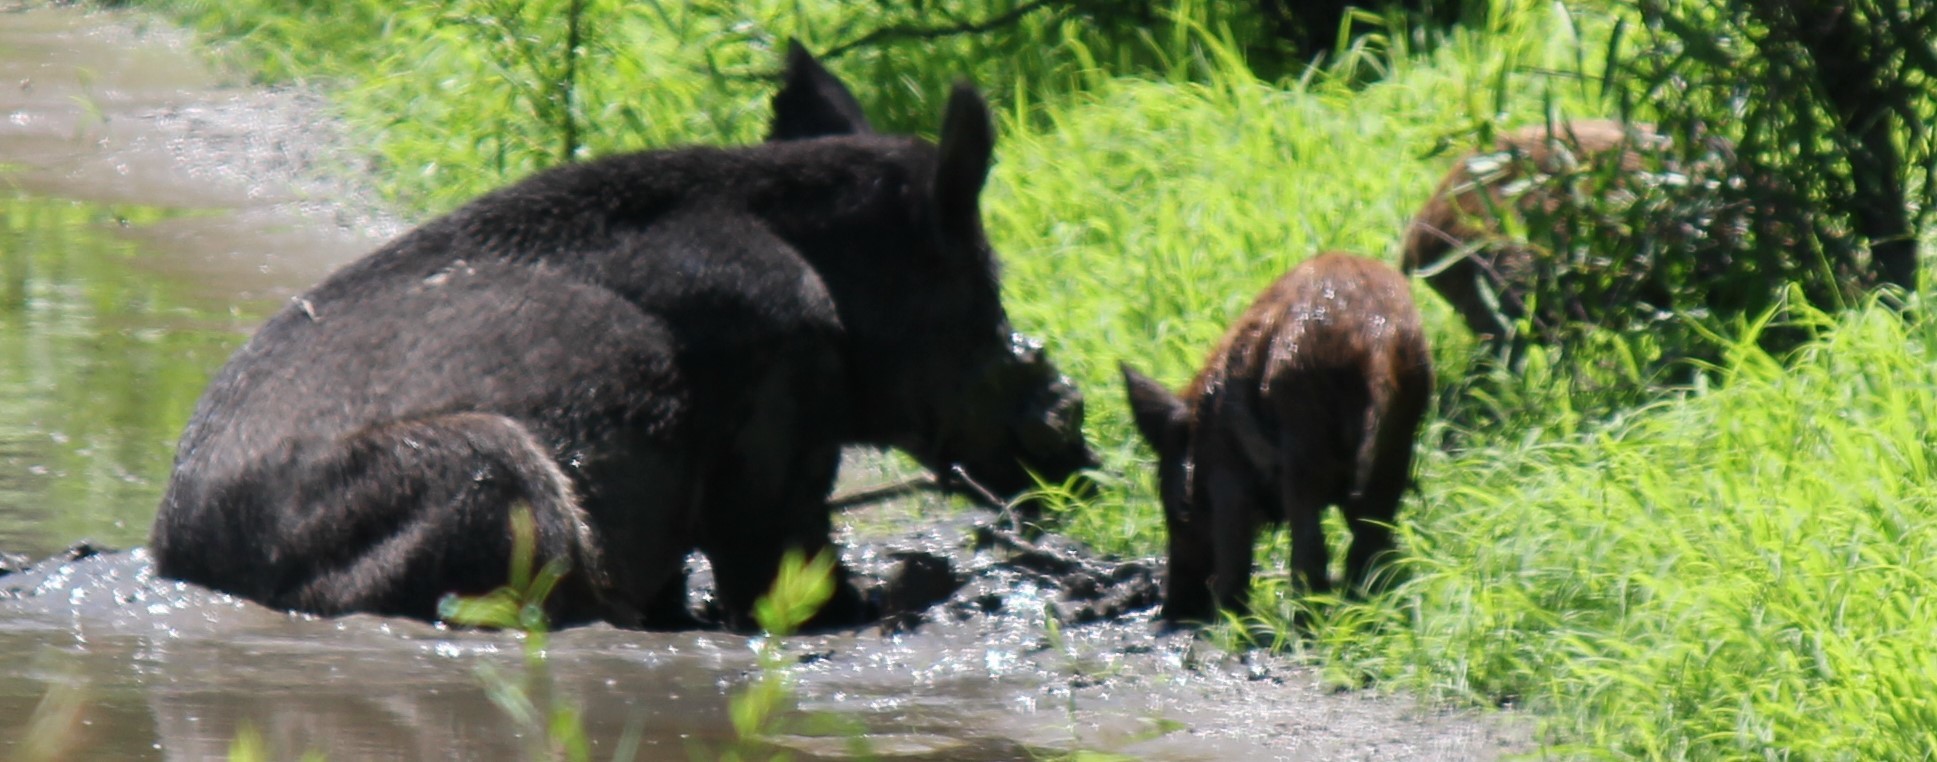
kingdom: Animalia
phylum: Chordata
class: Mammalia
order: Artiodactyla
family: Suidae
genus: Sus
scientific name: Sus scrofa
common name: Wild boar
